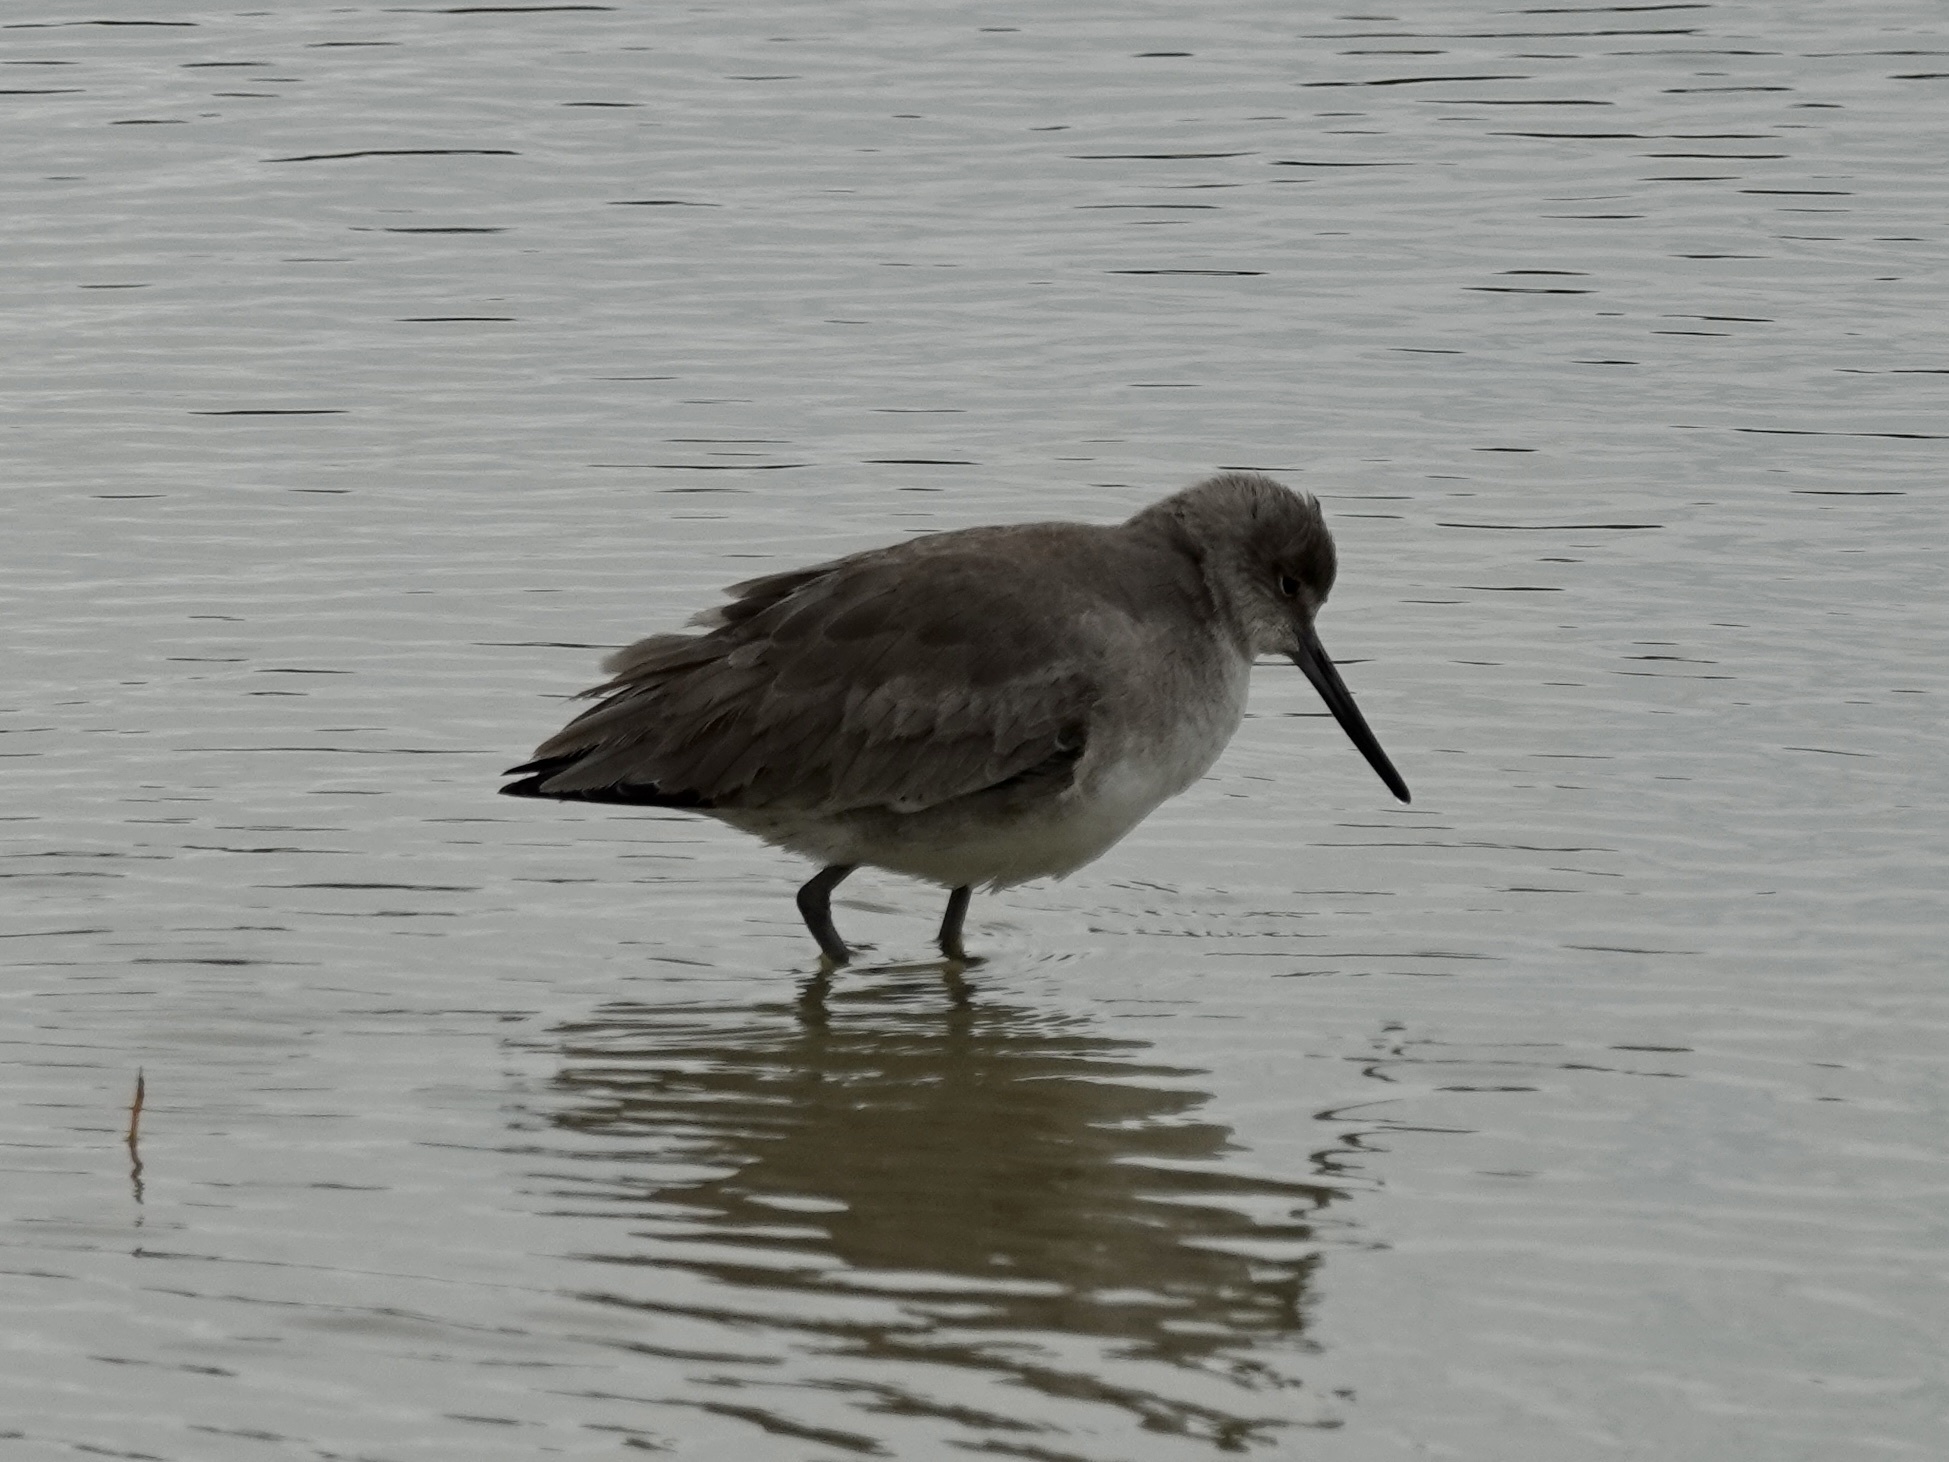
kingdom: Animalia
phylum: Chordata
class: Aves
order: Charadriiformes
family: Scolopacidae
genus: Tringa
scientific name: Tringa semipalmata
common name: Willet
